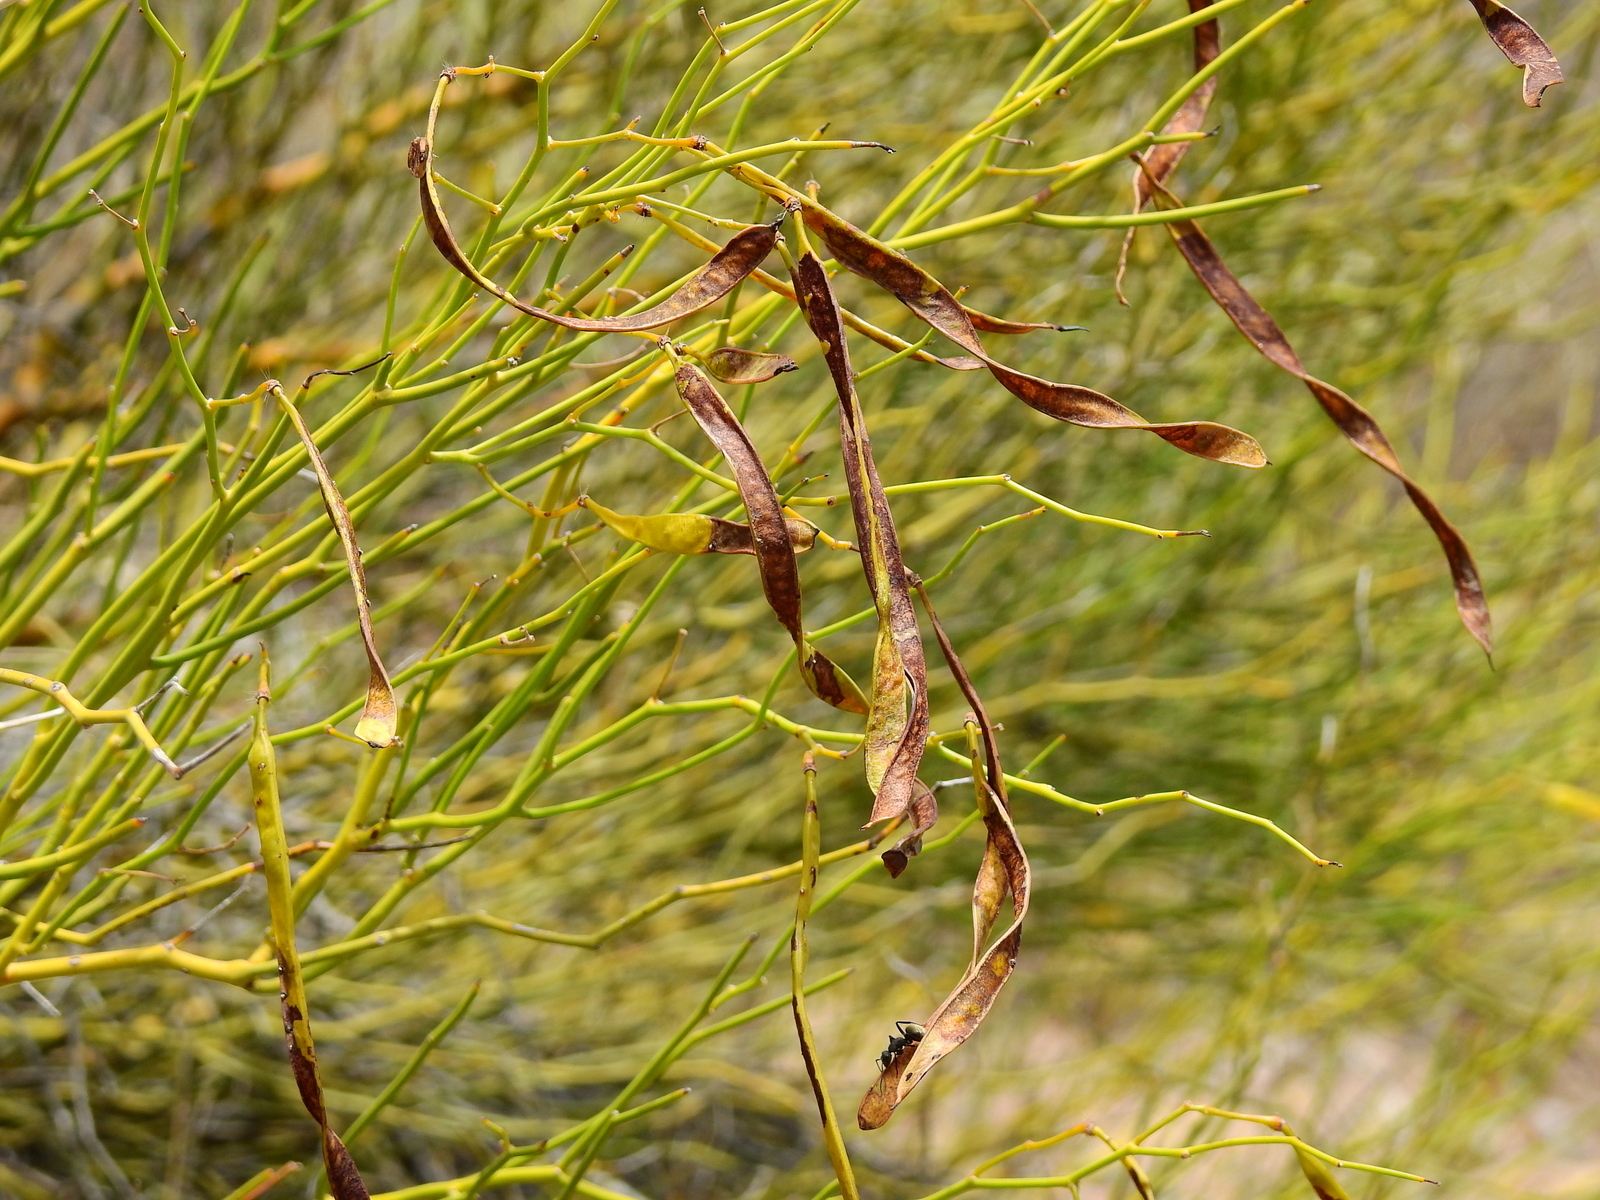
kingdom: Plantae
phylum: Tracheophyta
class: Magnoliopsida
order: Fabales
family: Fabaceae
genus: Senna
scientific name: Senna aphylla
